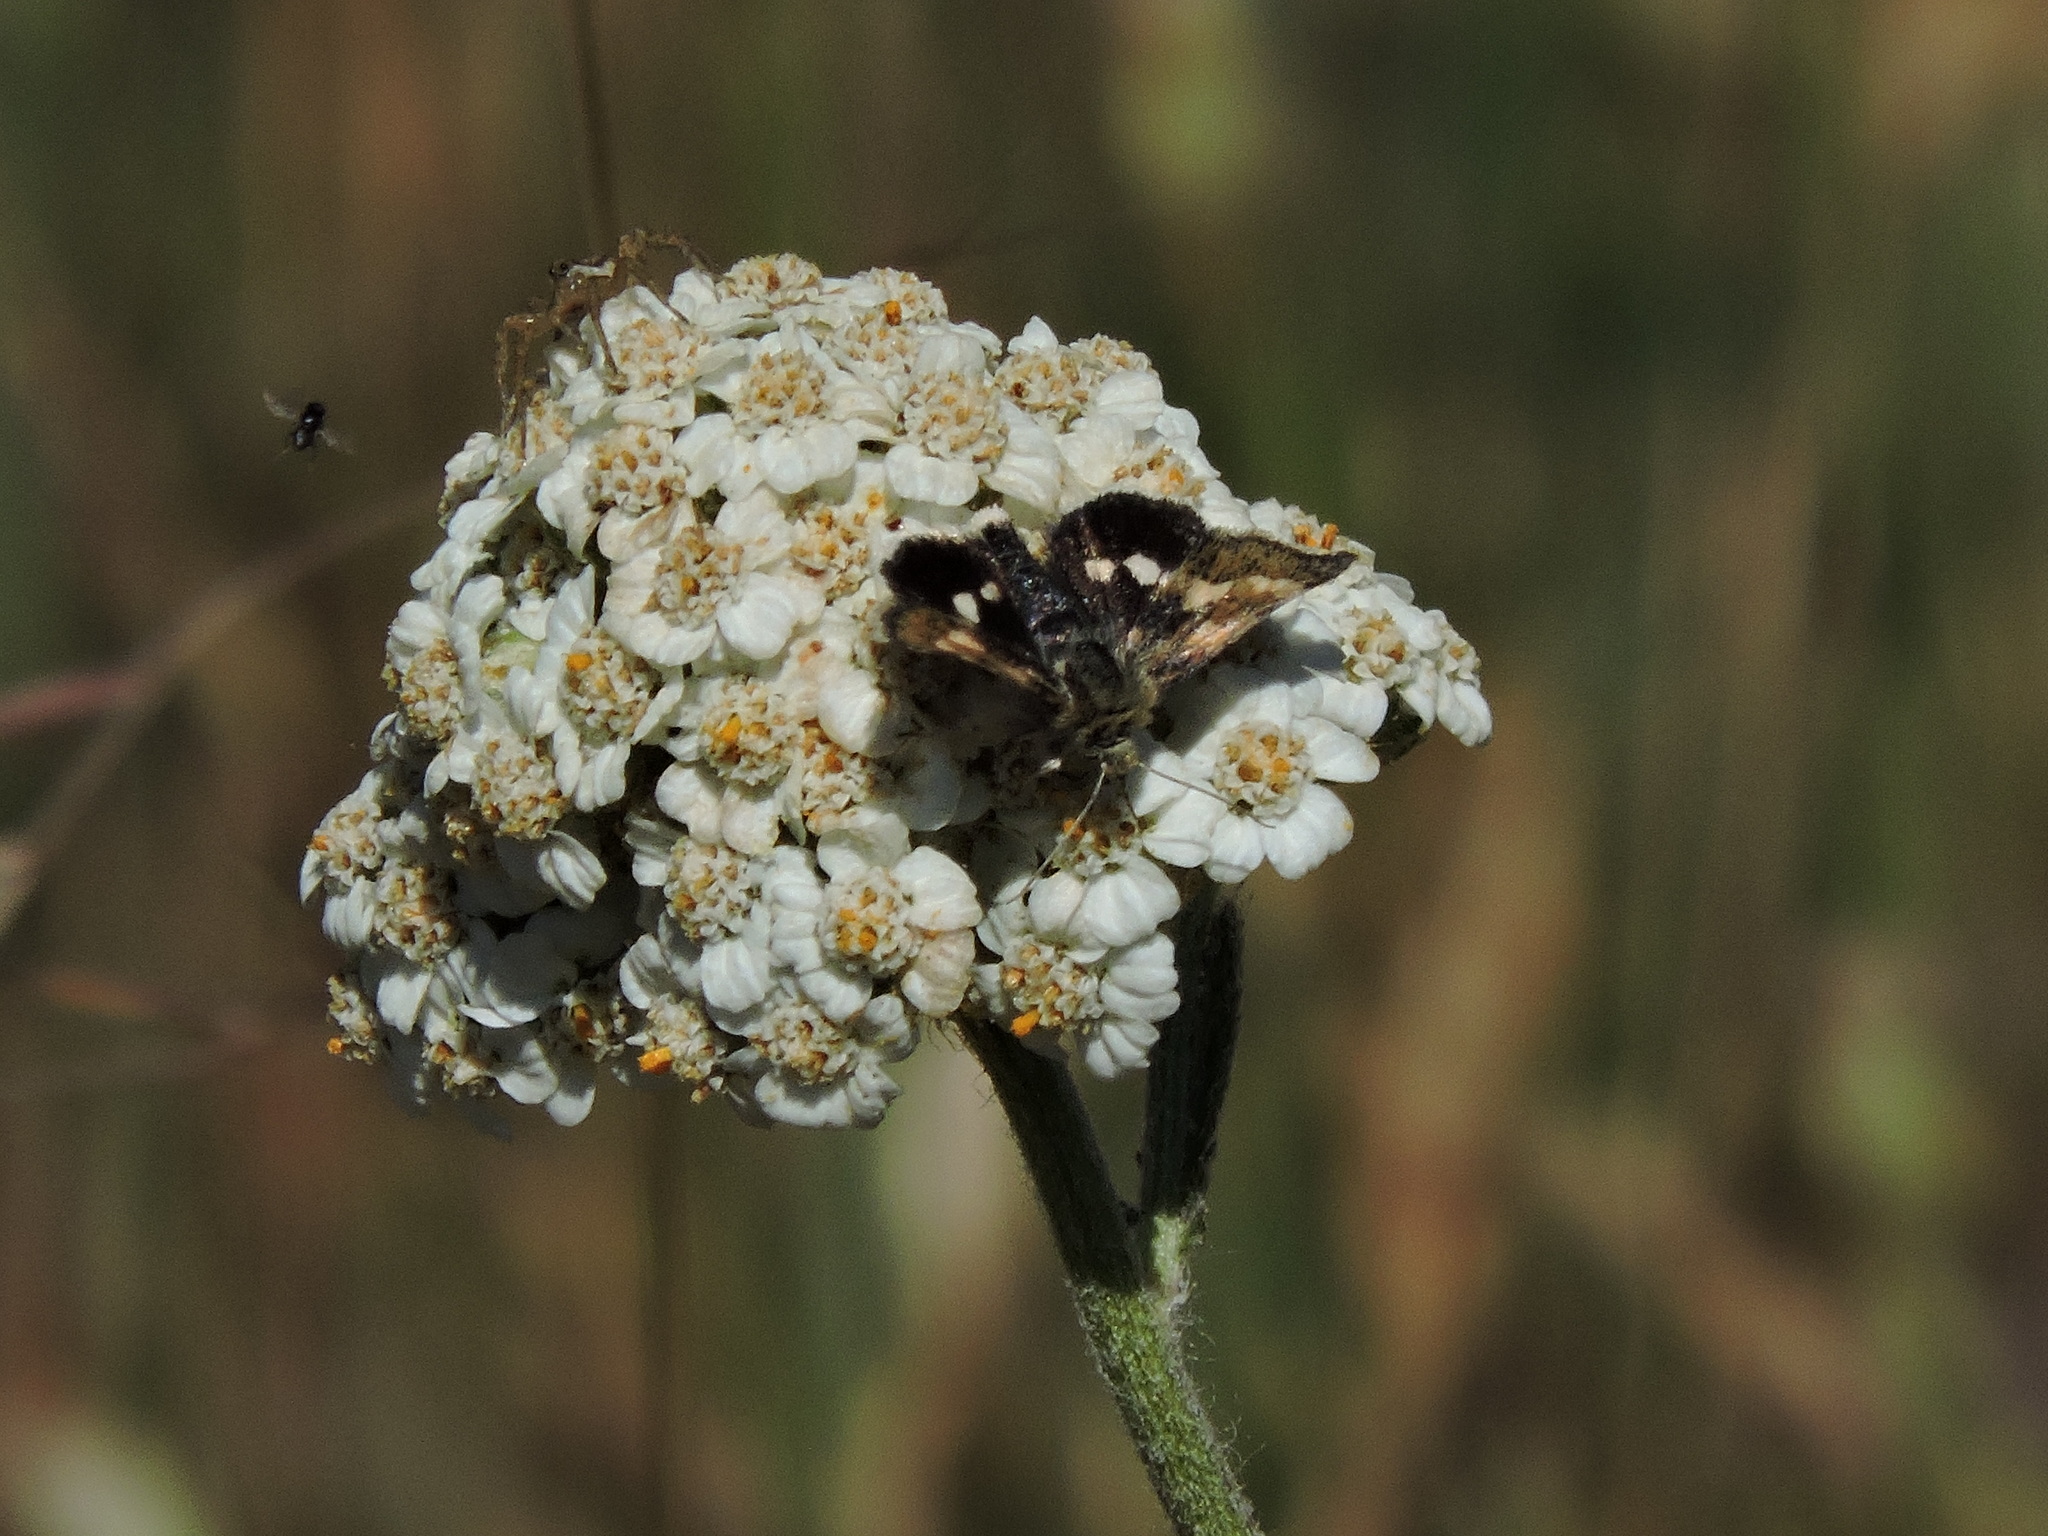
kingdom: Animalia
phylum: Arthropoda
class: Insecta
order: Lepidoptera
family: Noctuidae
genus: Heliothodes
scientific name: Heliothodes diminutiva
